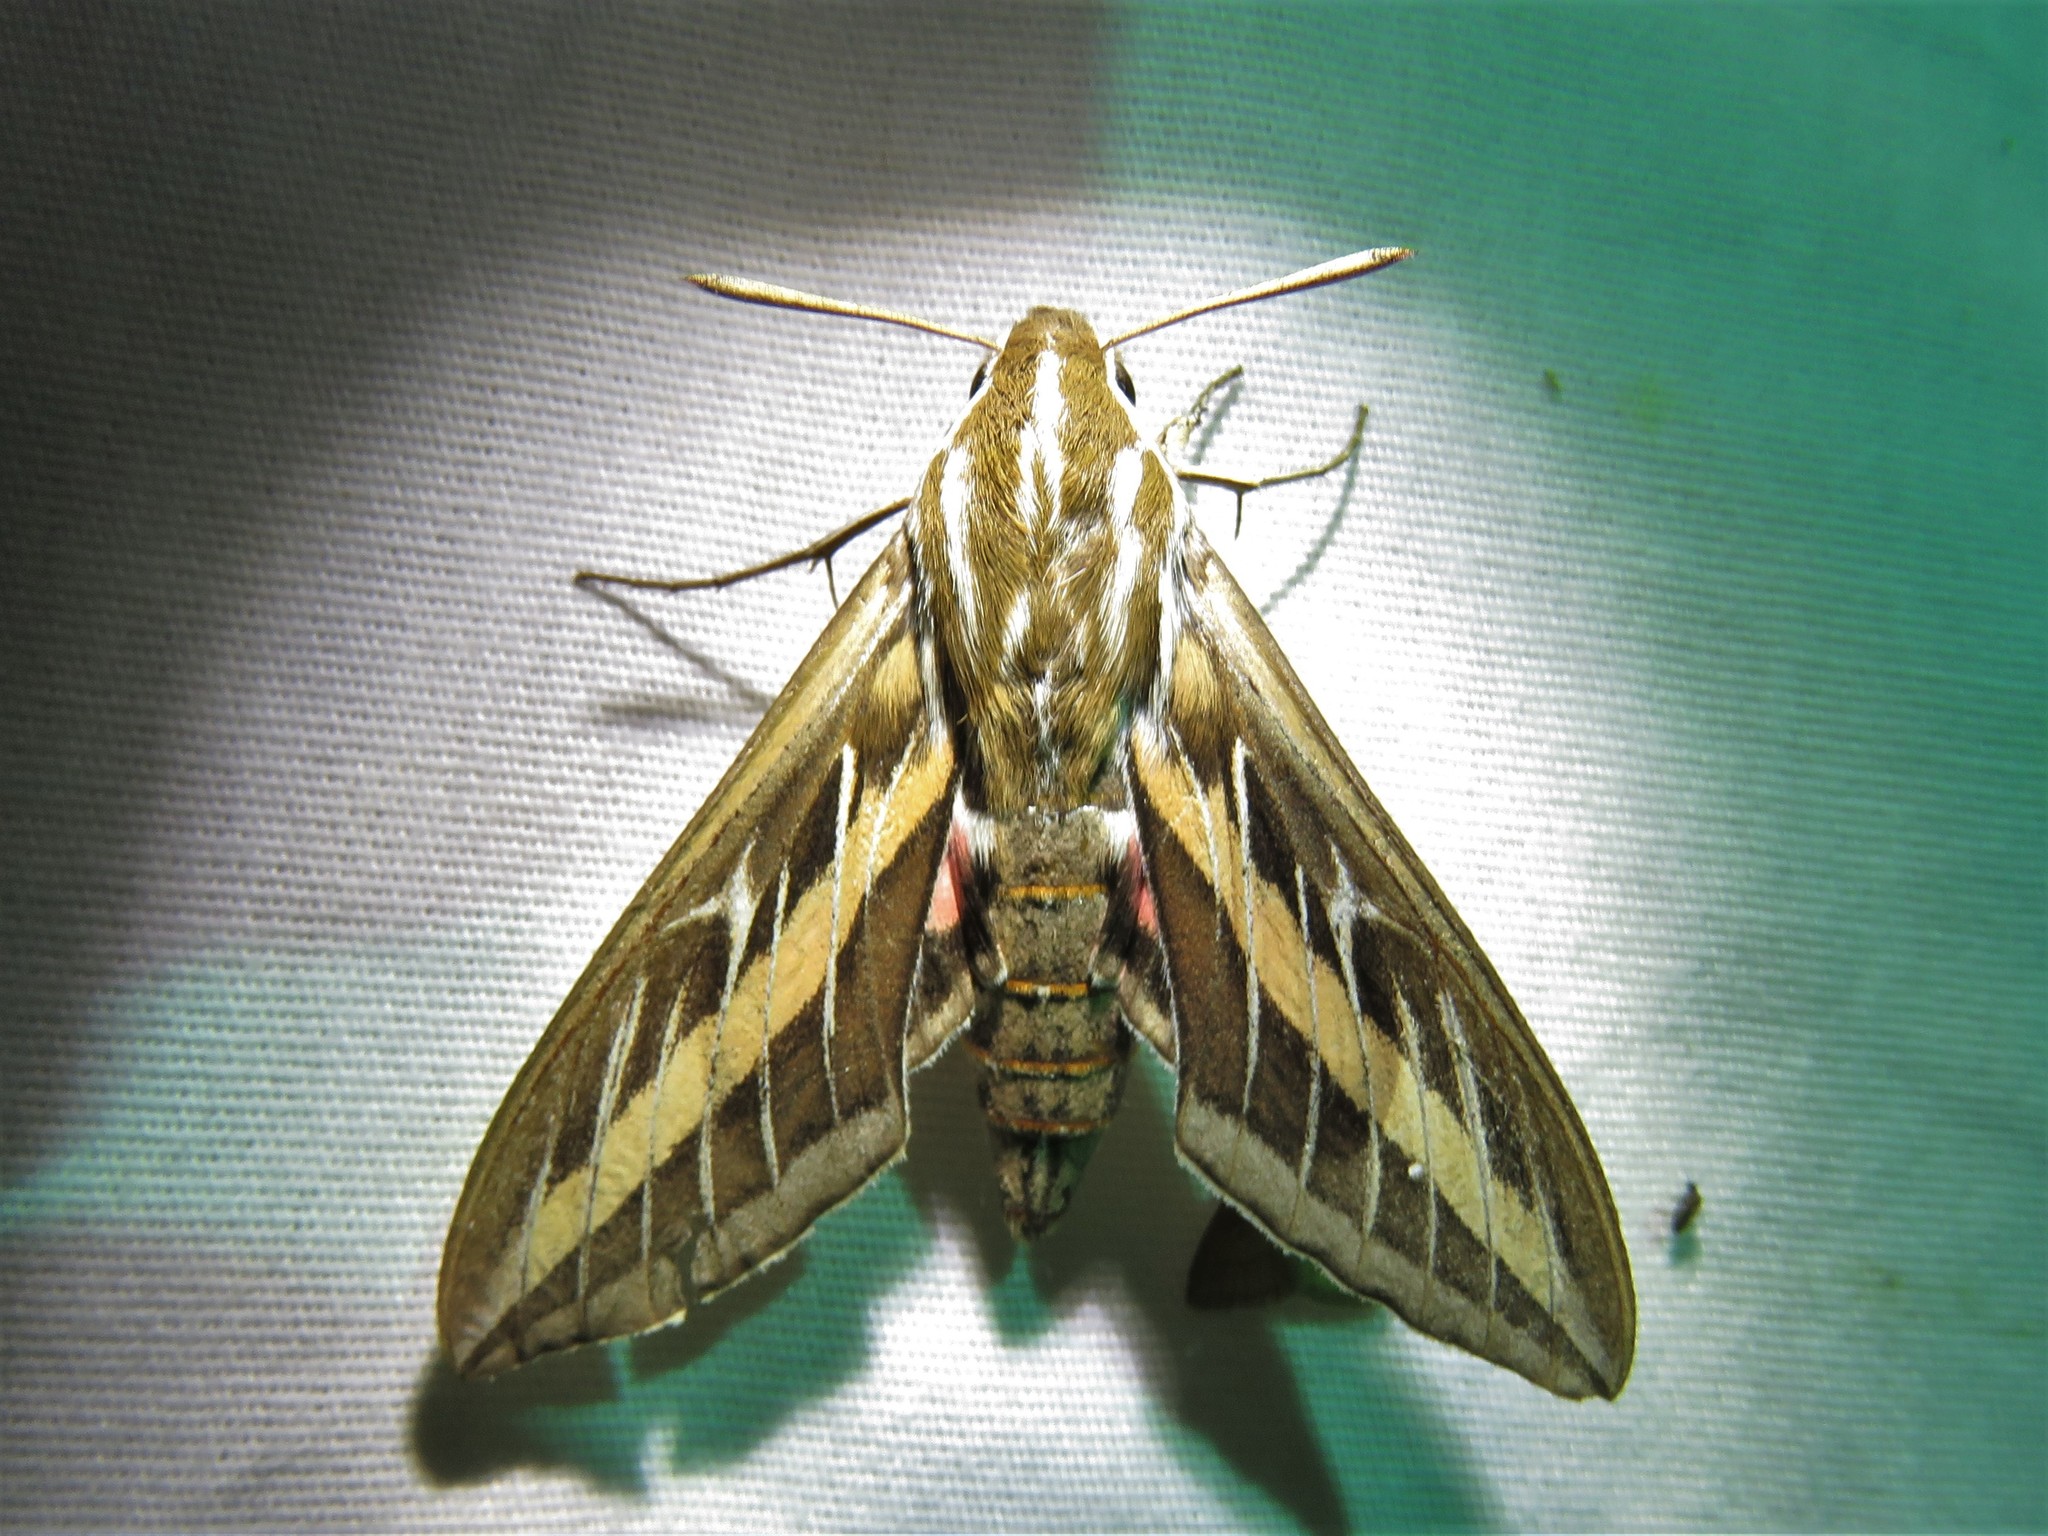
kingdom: Animalia
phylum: Arthropoda
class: Insecta
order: Lepidoptera
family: Sphingidae
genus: Hyles
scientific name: Hyles lineata
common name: White-lined sphinx
